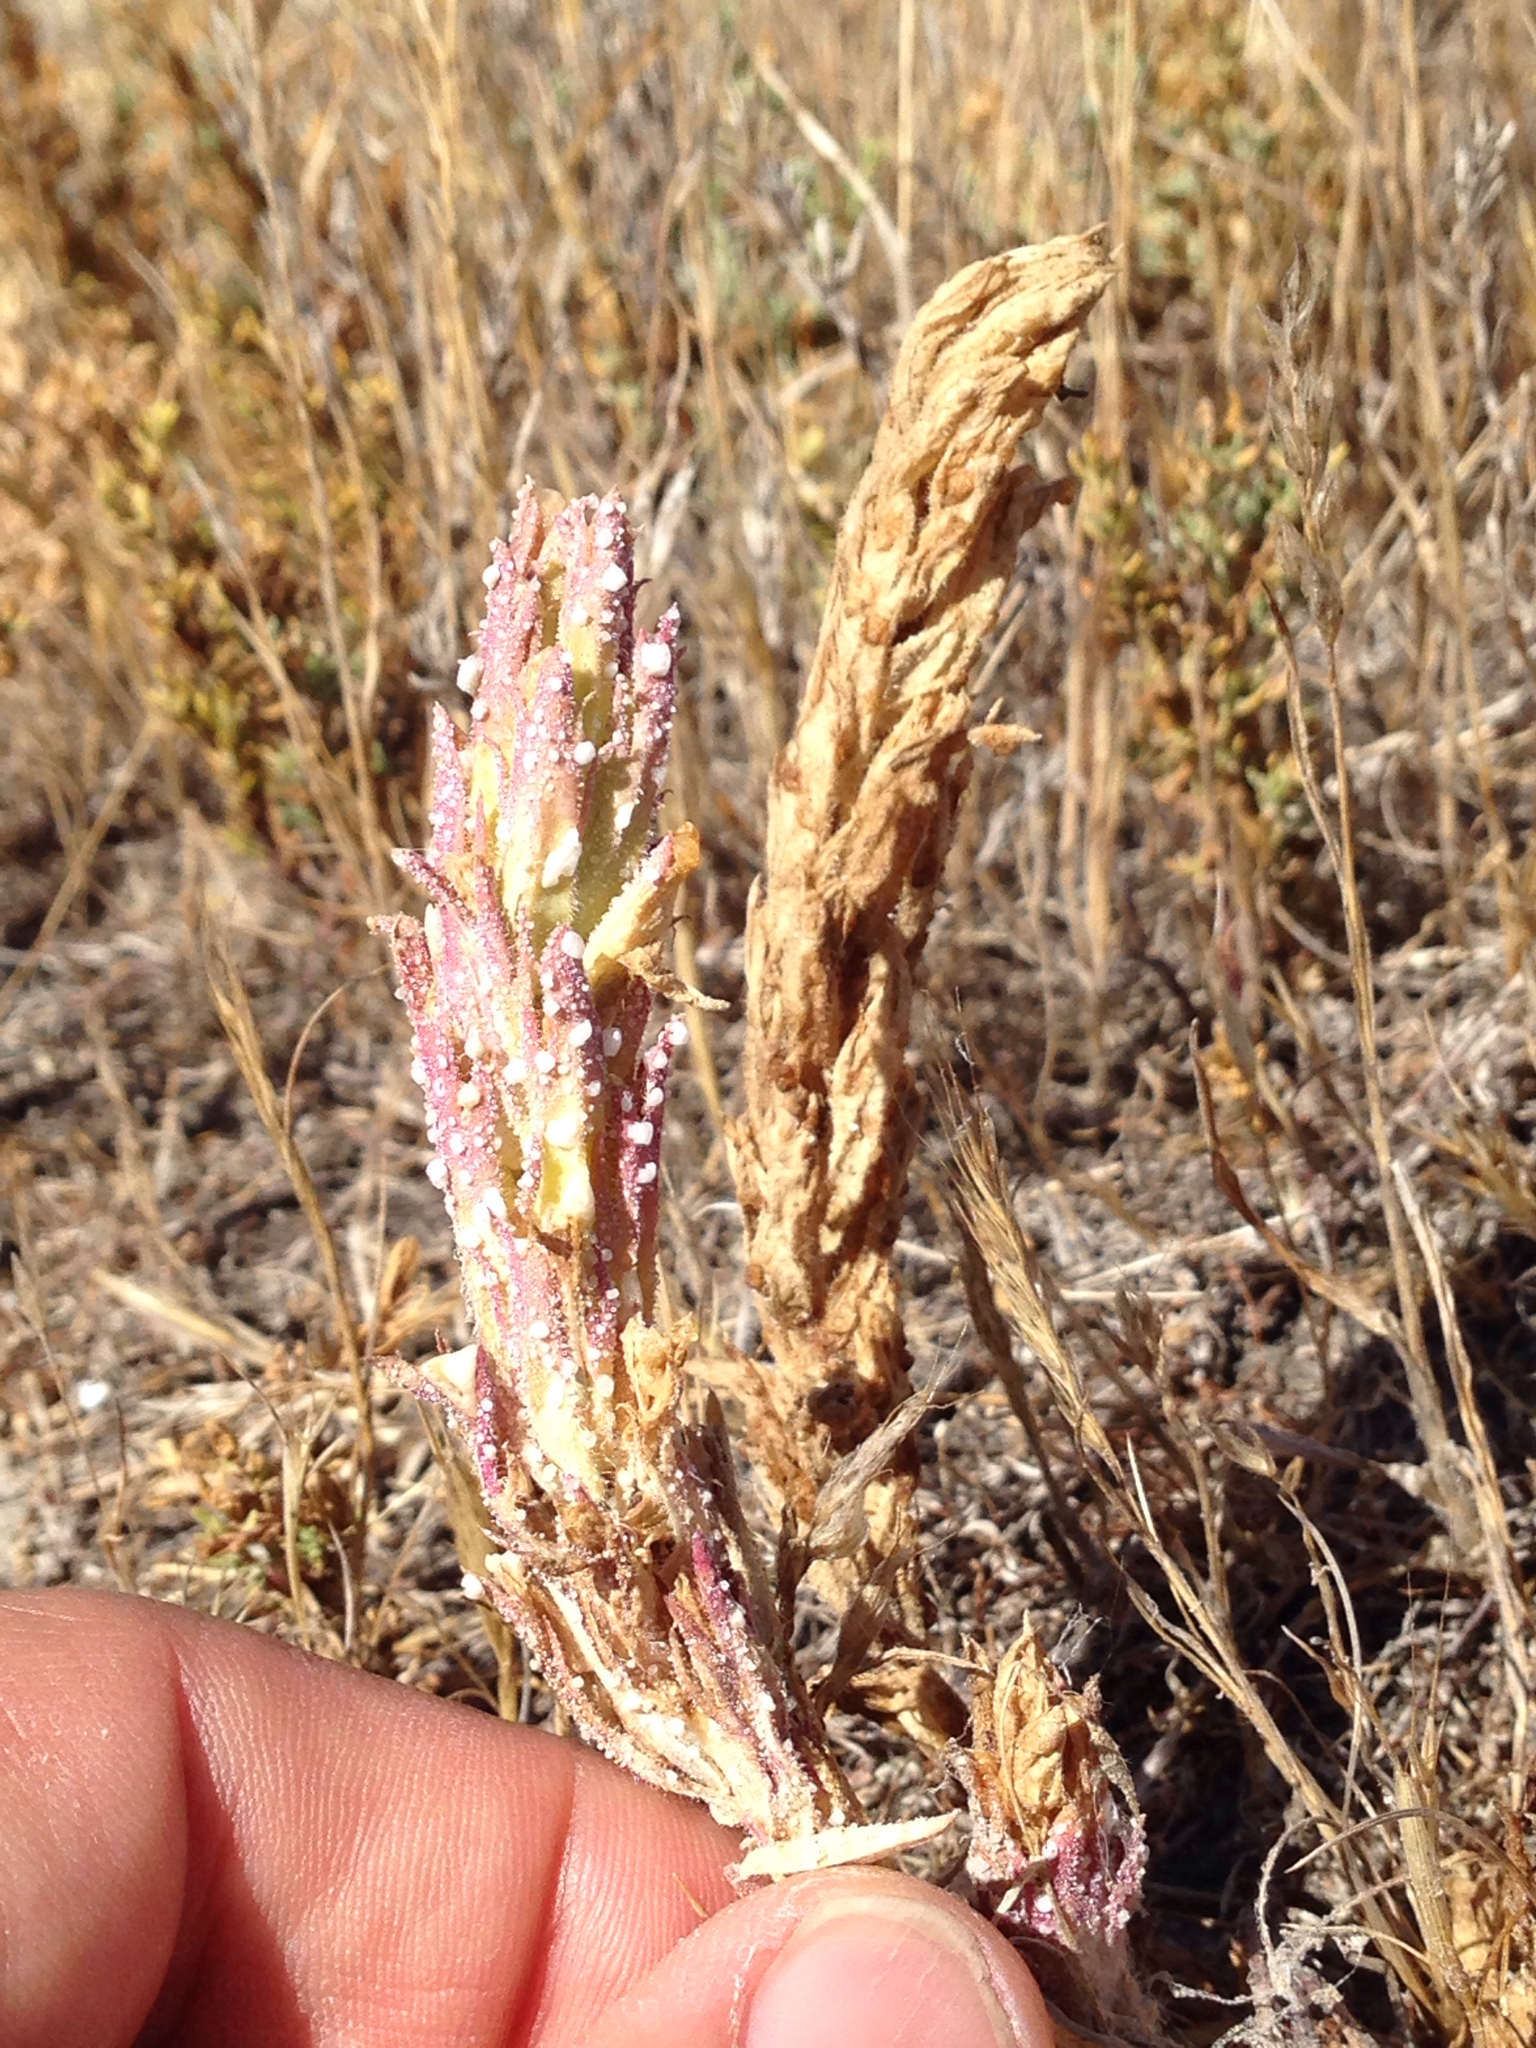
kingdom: Plantae
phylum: Tracheophyta
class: Magnoliopsida
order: Lamiales
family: Orobanchaceae
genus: Chloropyron
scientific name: Chloropyron palmatum
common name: Palmate salty bird's-beak
